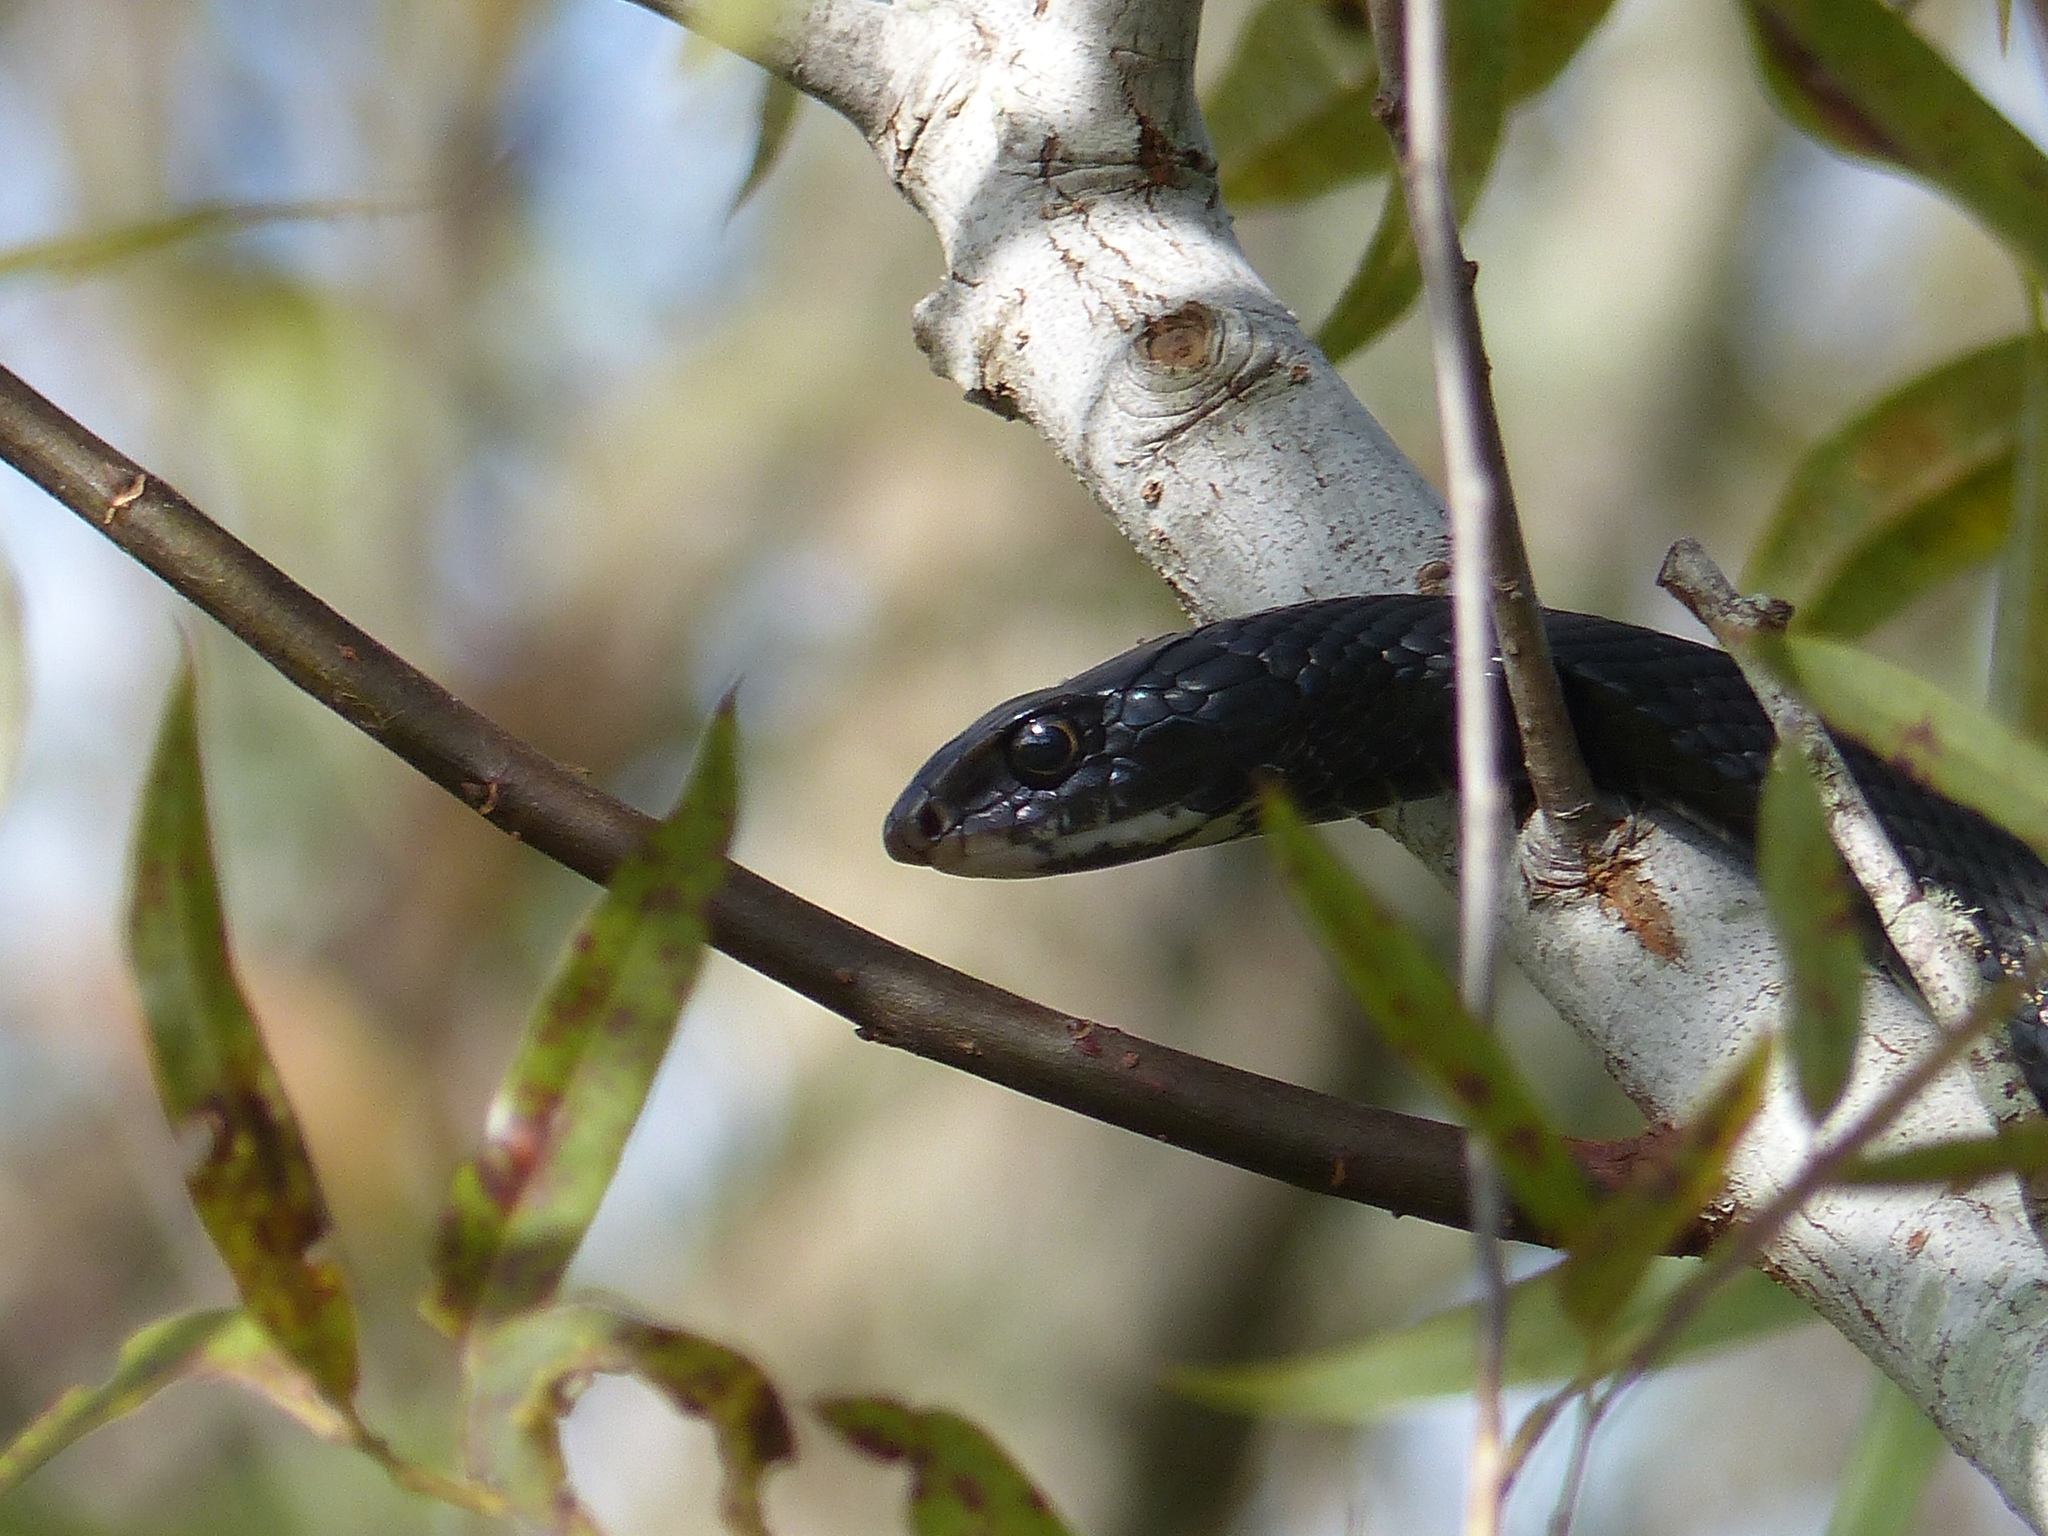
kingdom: Animalia
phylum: Chordata
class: Squamata
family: Colubridae
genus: Coluber
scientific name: Coluber constrictor
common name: Eastern racer
